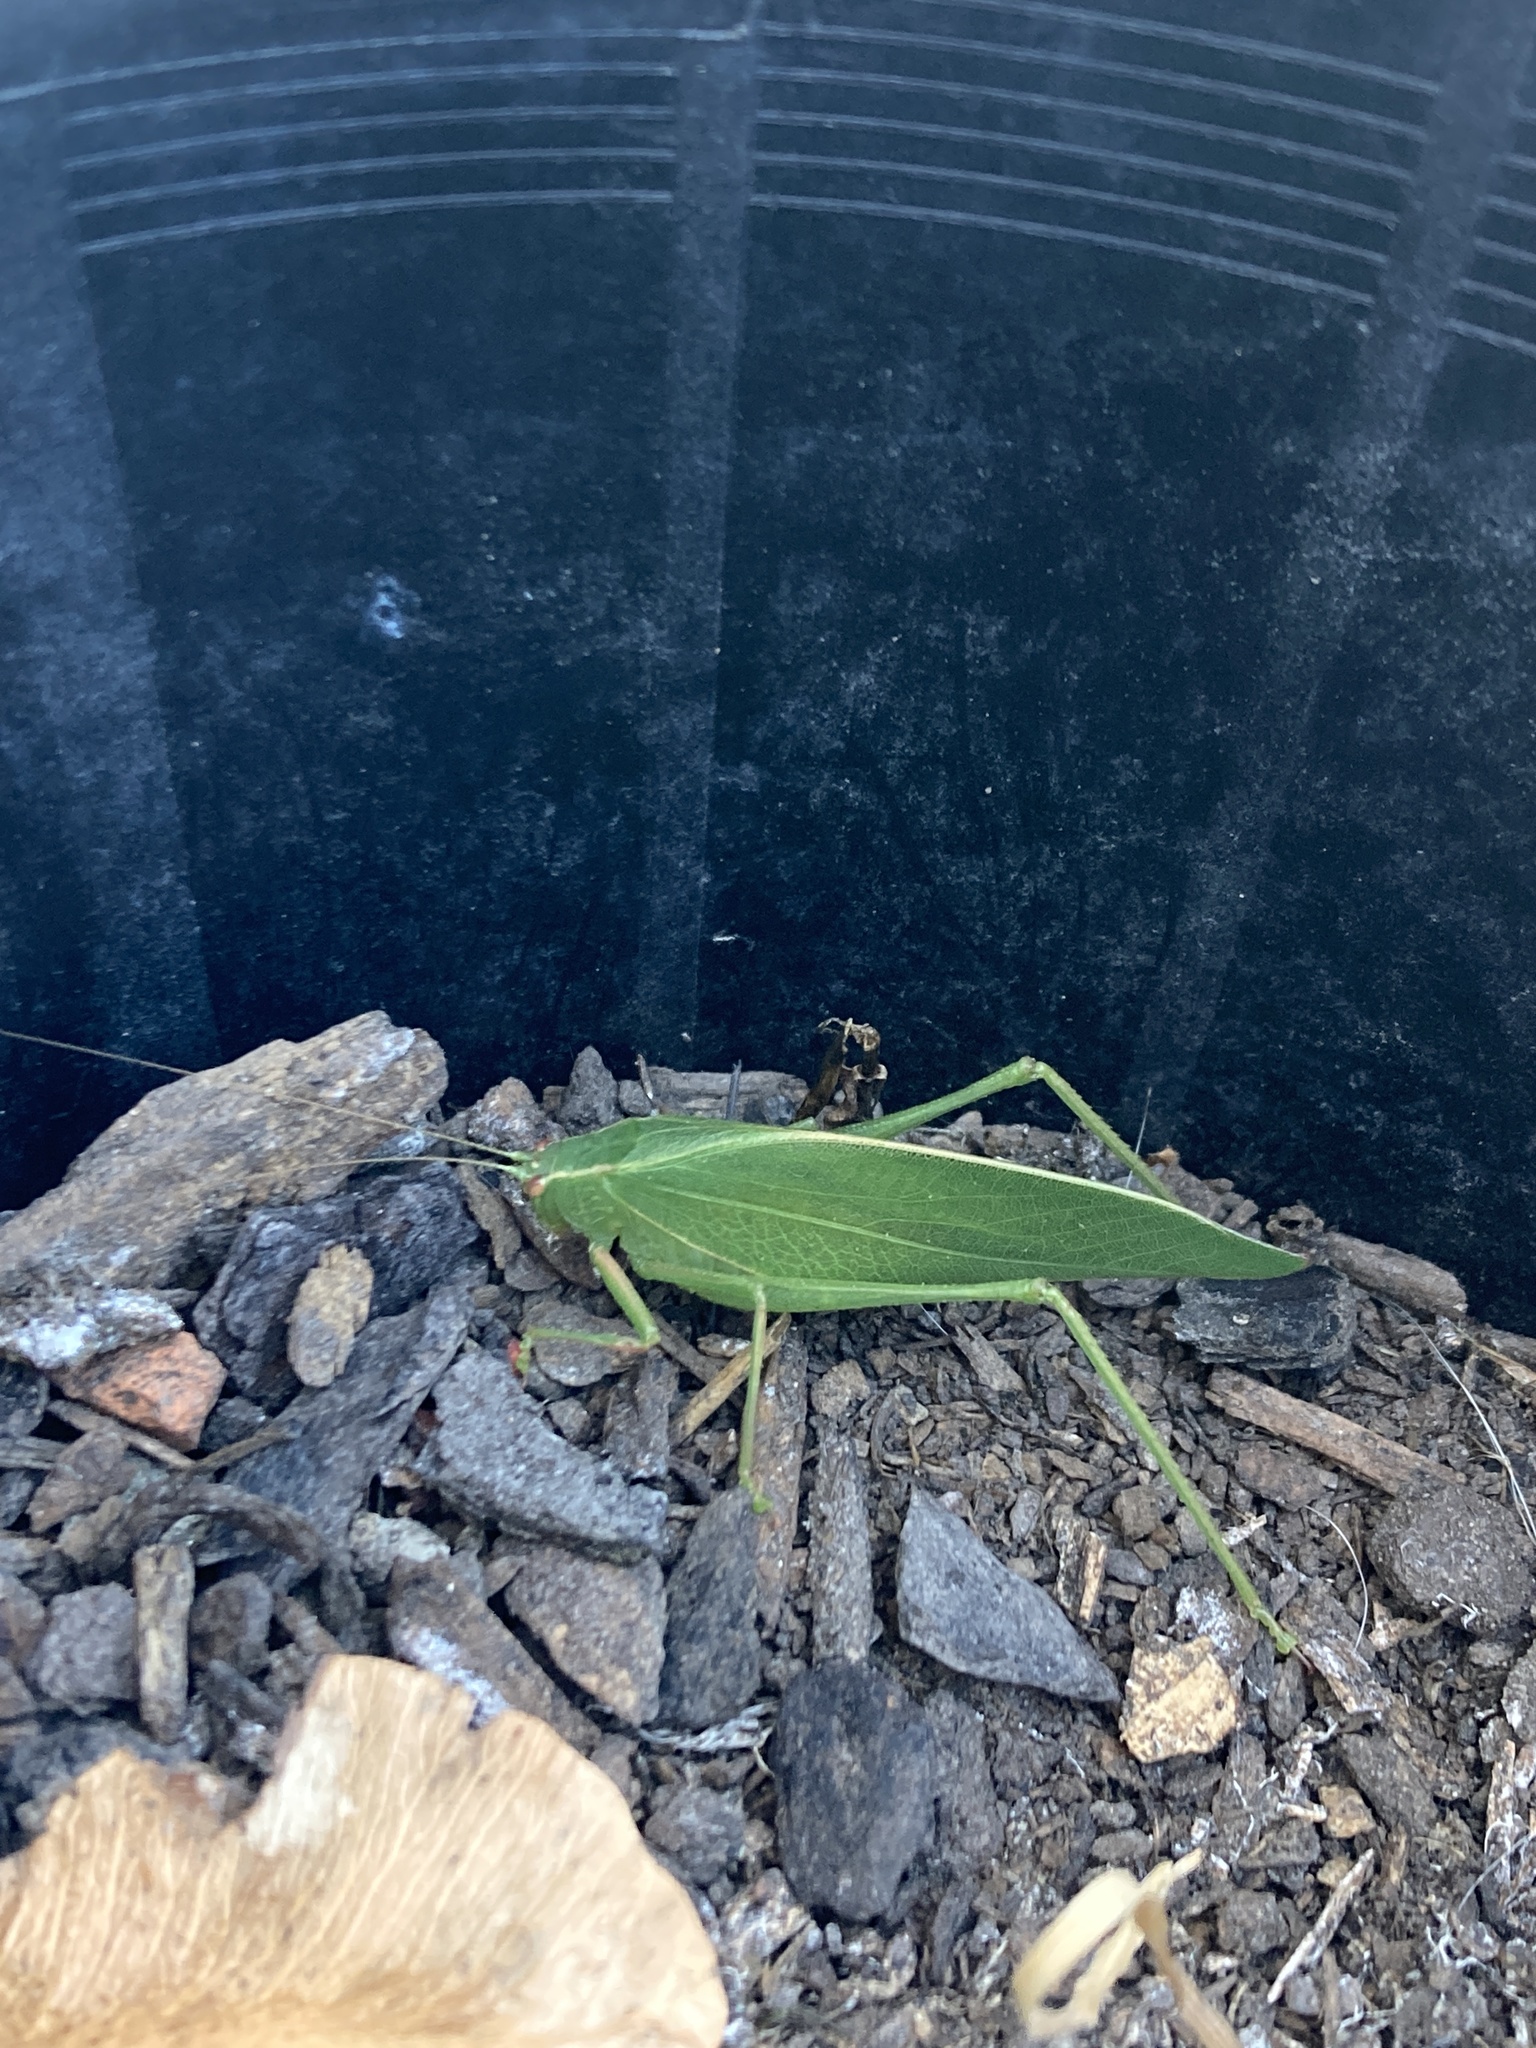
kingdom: Animalia
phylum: Arthropoda
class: Insecta
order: Orthoptera
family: Tettigoniidae
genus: Caedicia
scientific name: Caedicia simplex
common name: Common garden katydid
